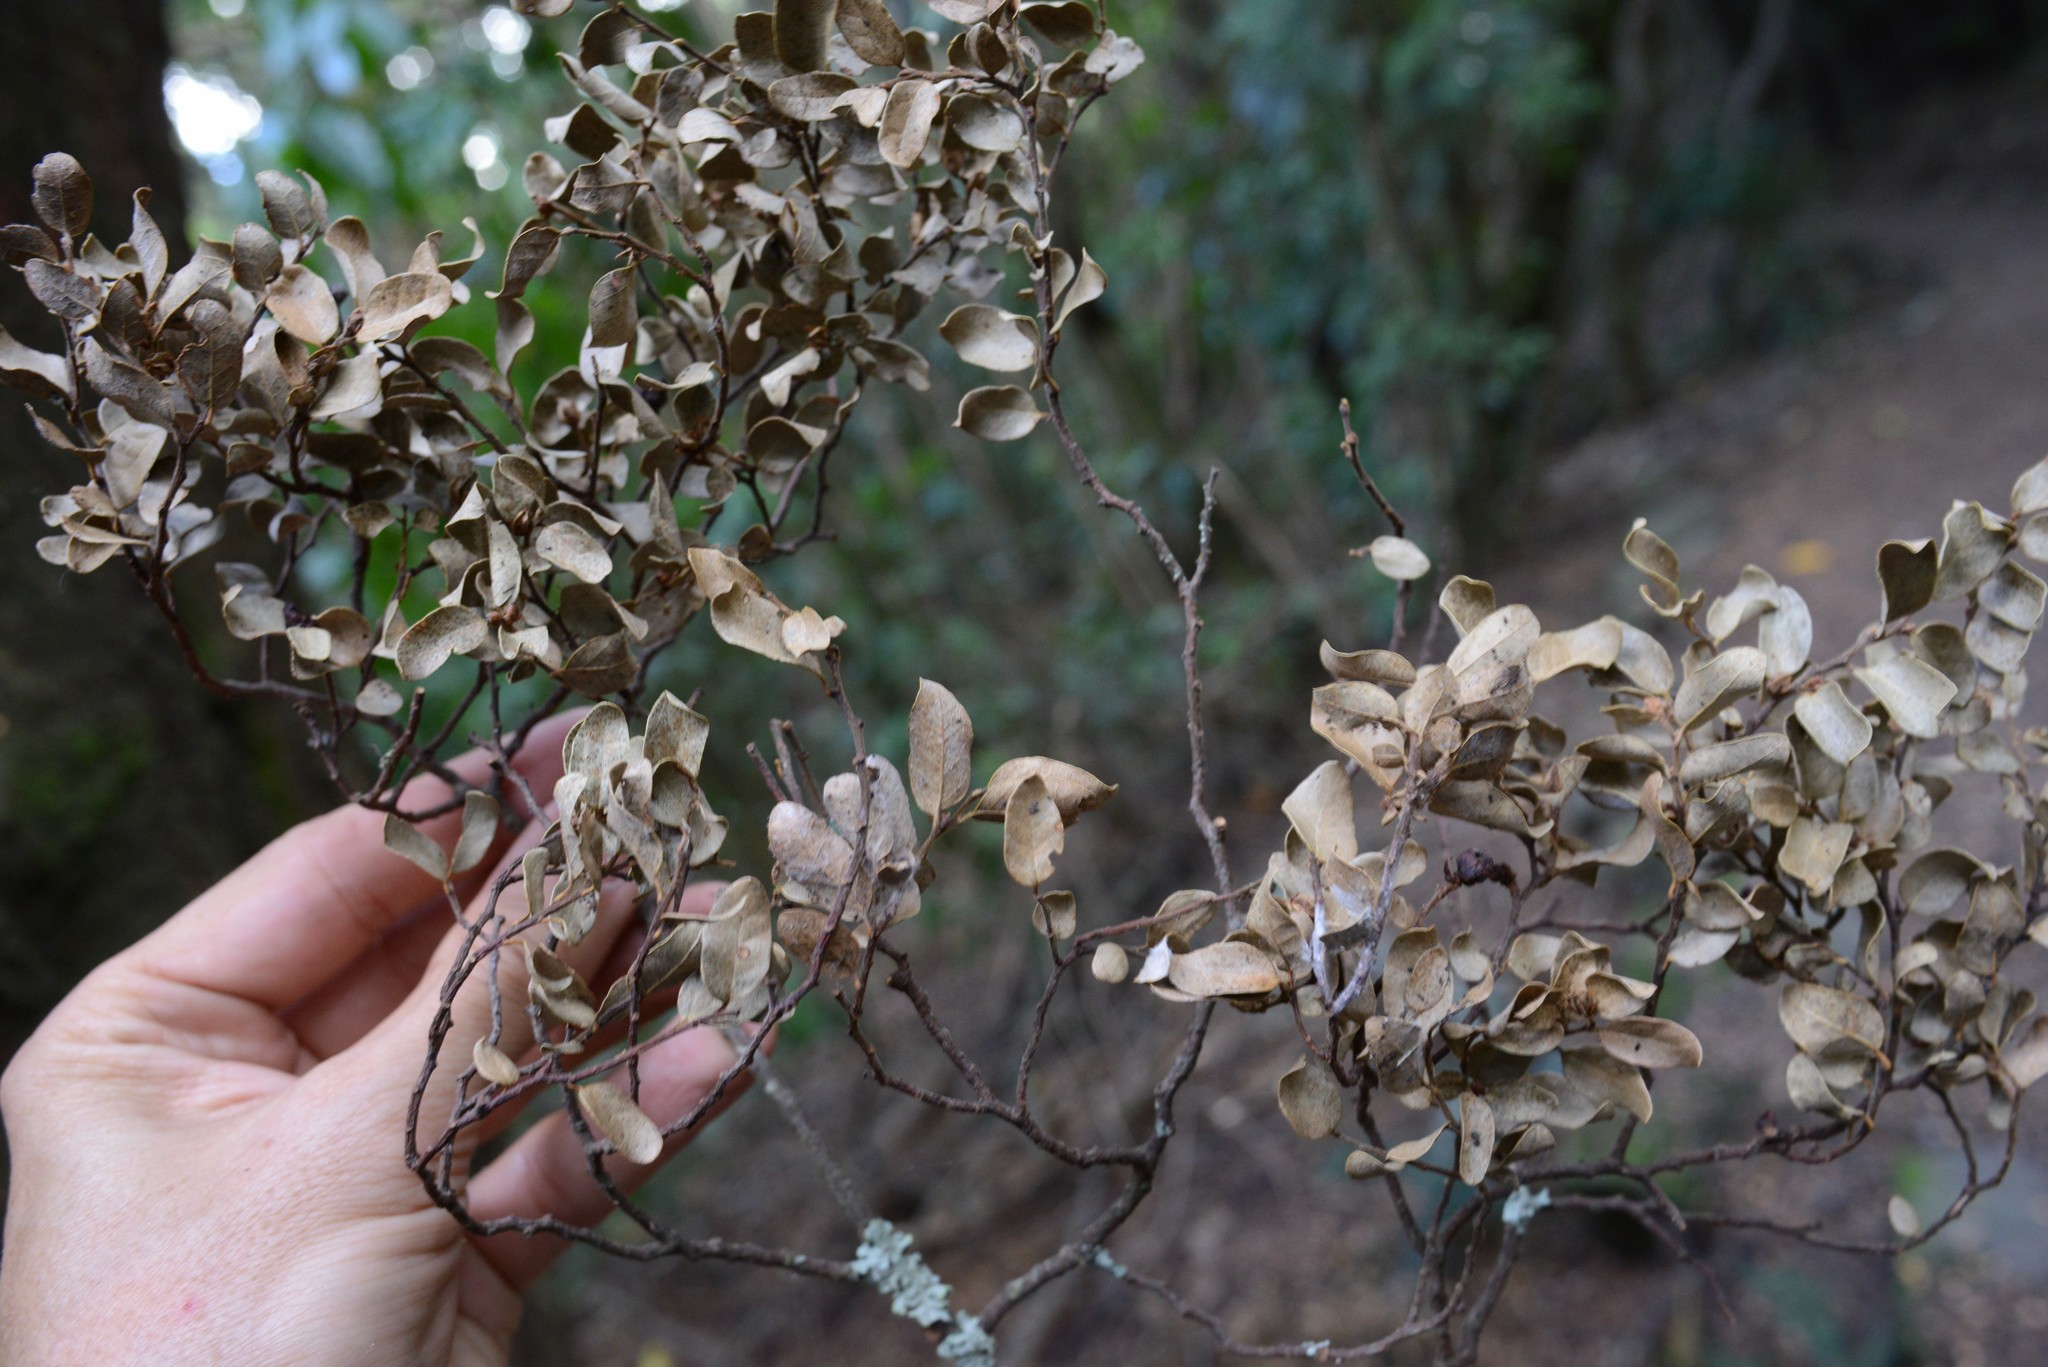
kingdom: Plantae
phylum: Tracheophyta
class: Magnoliopsida
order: Fagales
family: Nothofagaceae
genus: Nothofagus
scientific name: Nothofagus solandri
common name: Black beech
